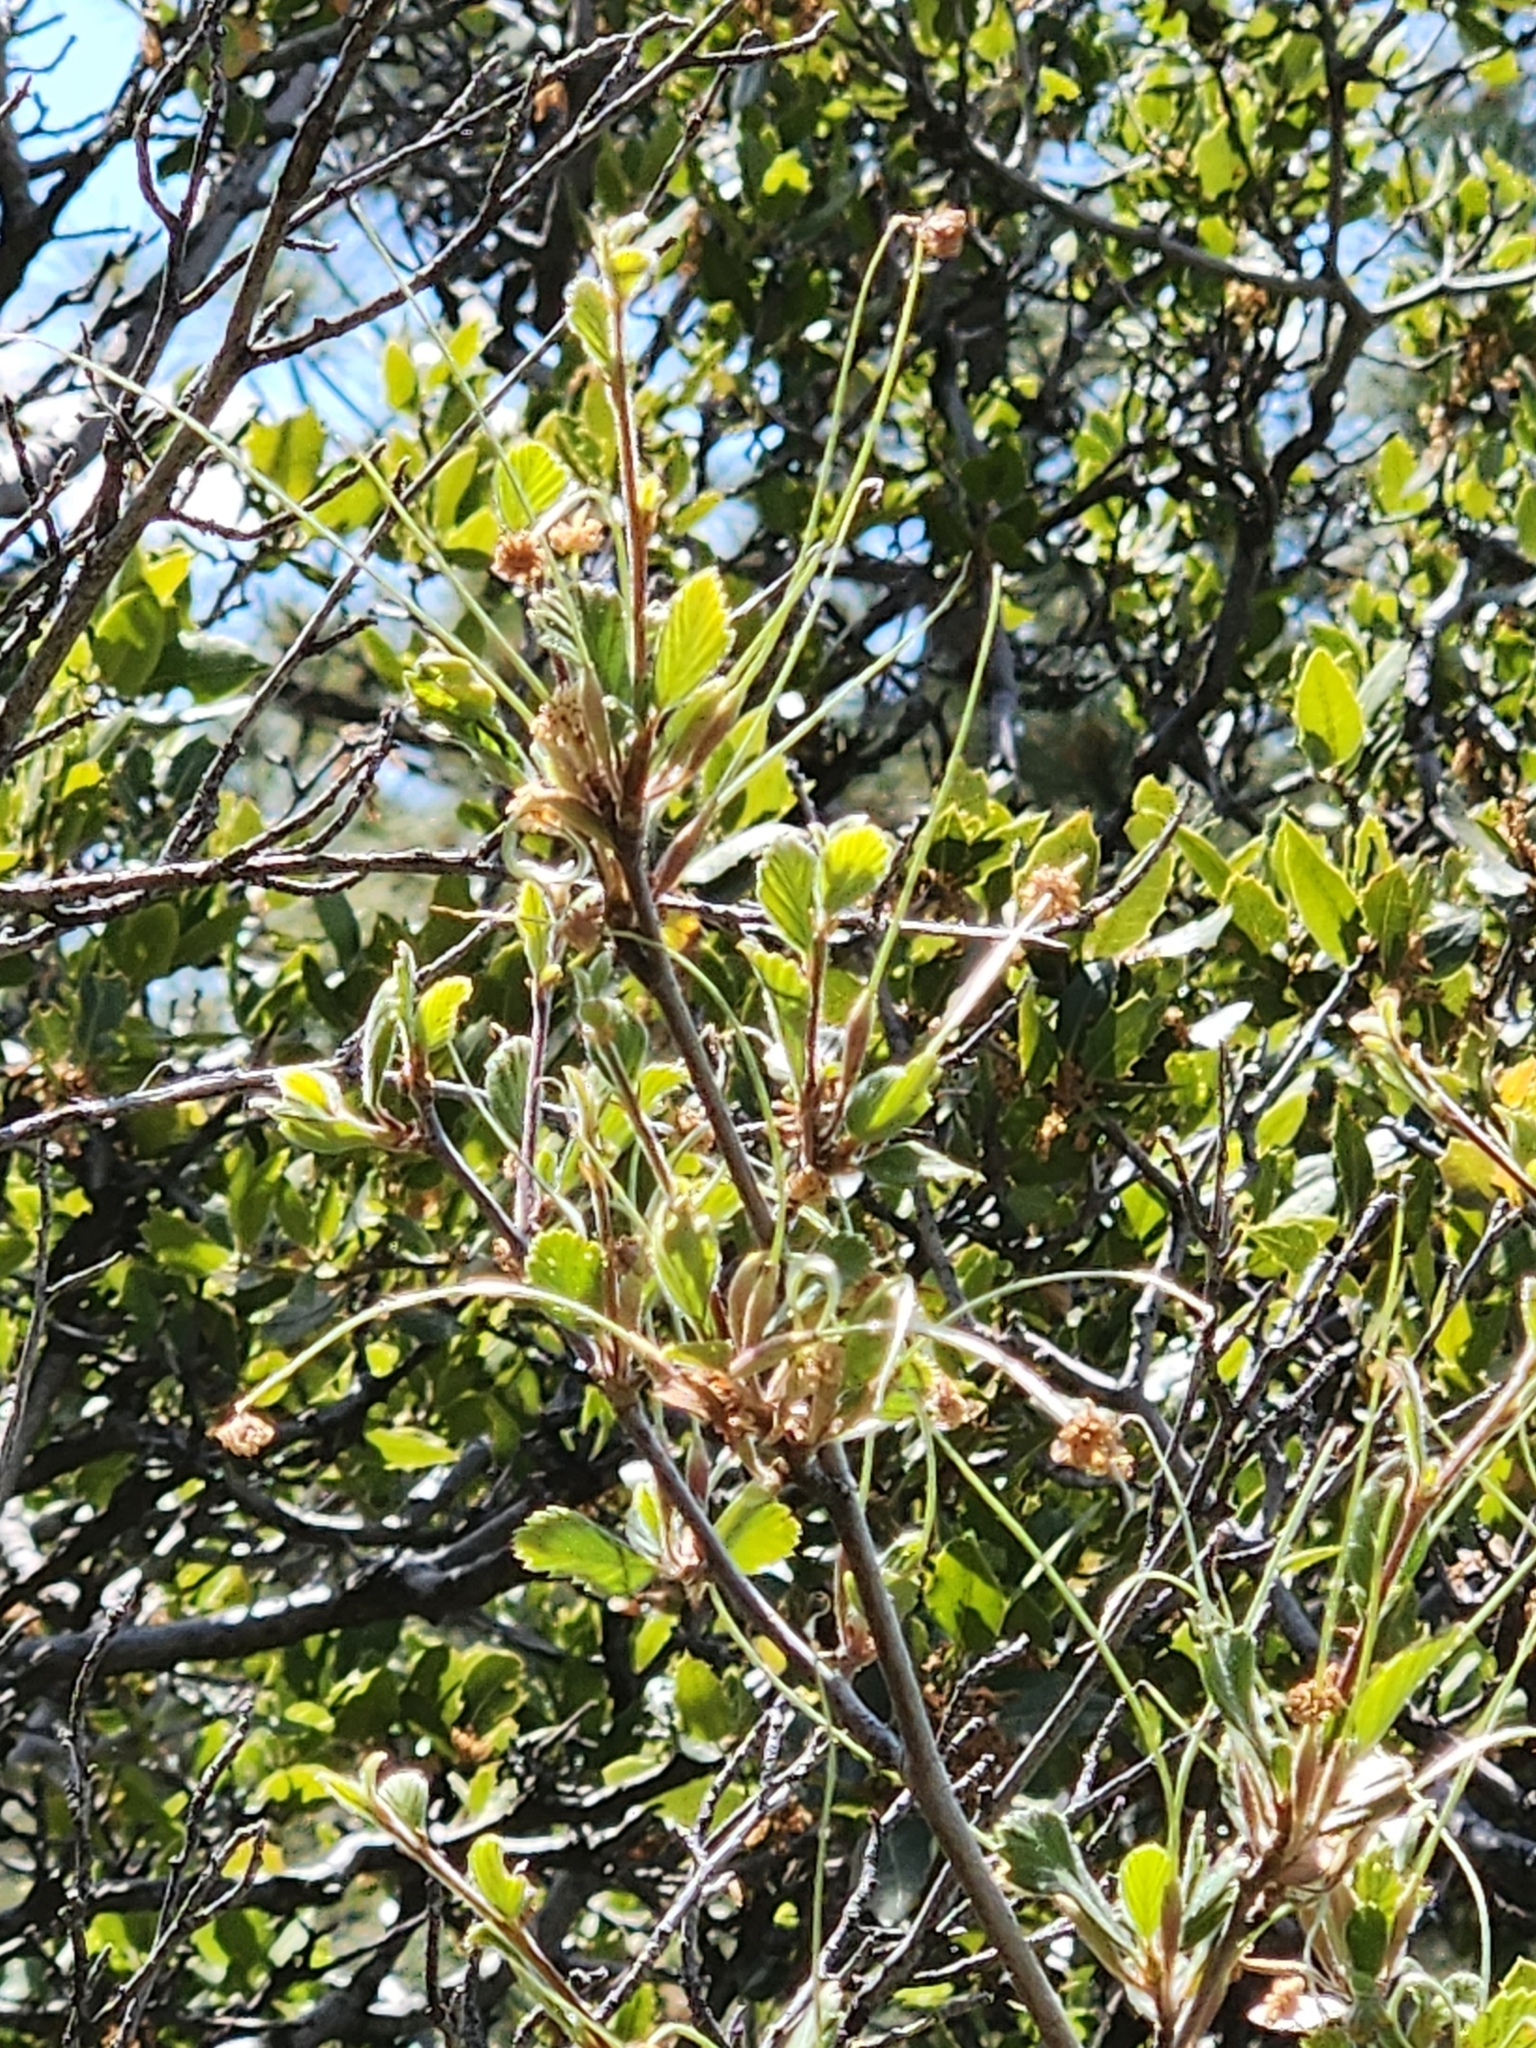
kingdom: Plantae
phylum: Tracheophyta
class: Magnoliopsida
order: Rosales
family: Rosaceae
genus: Cercocarpus
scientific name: Cercocarpus betuloides
